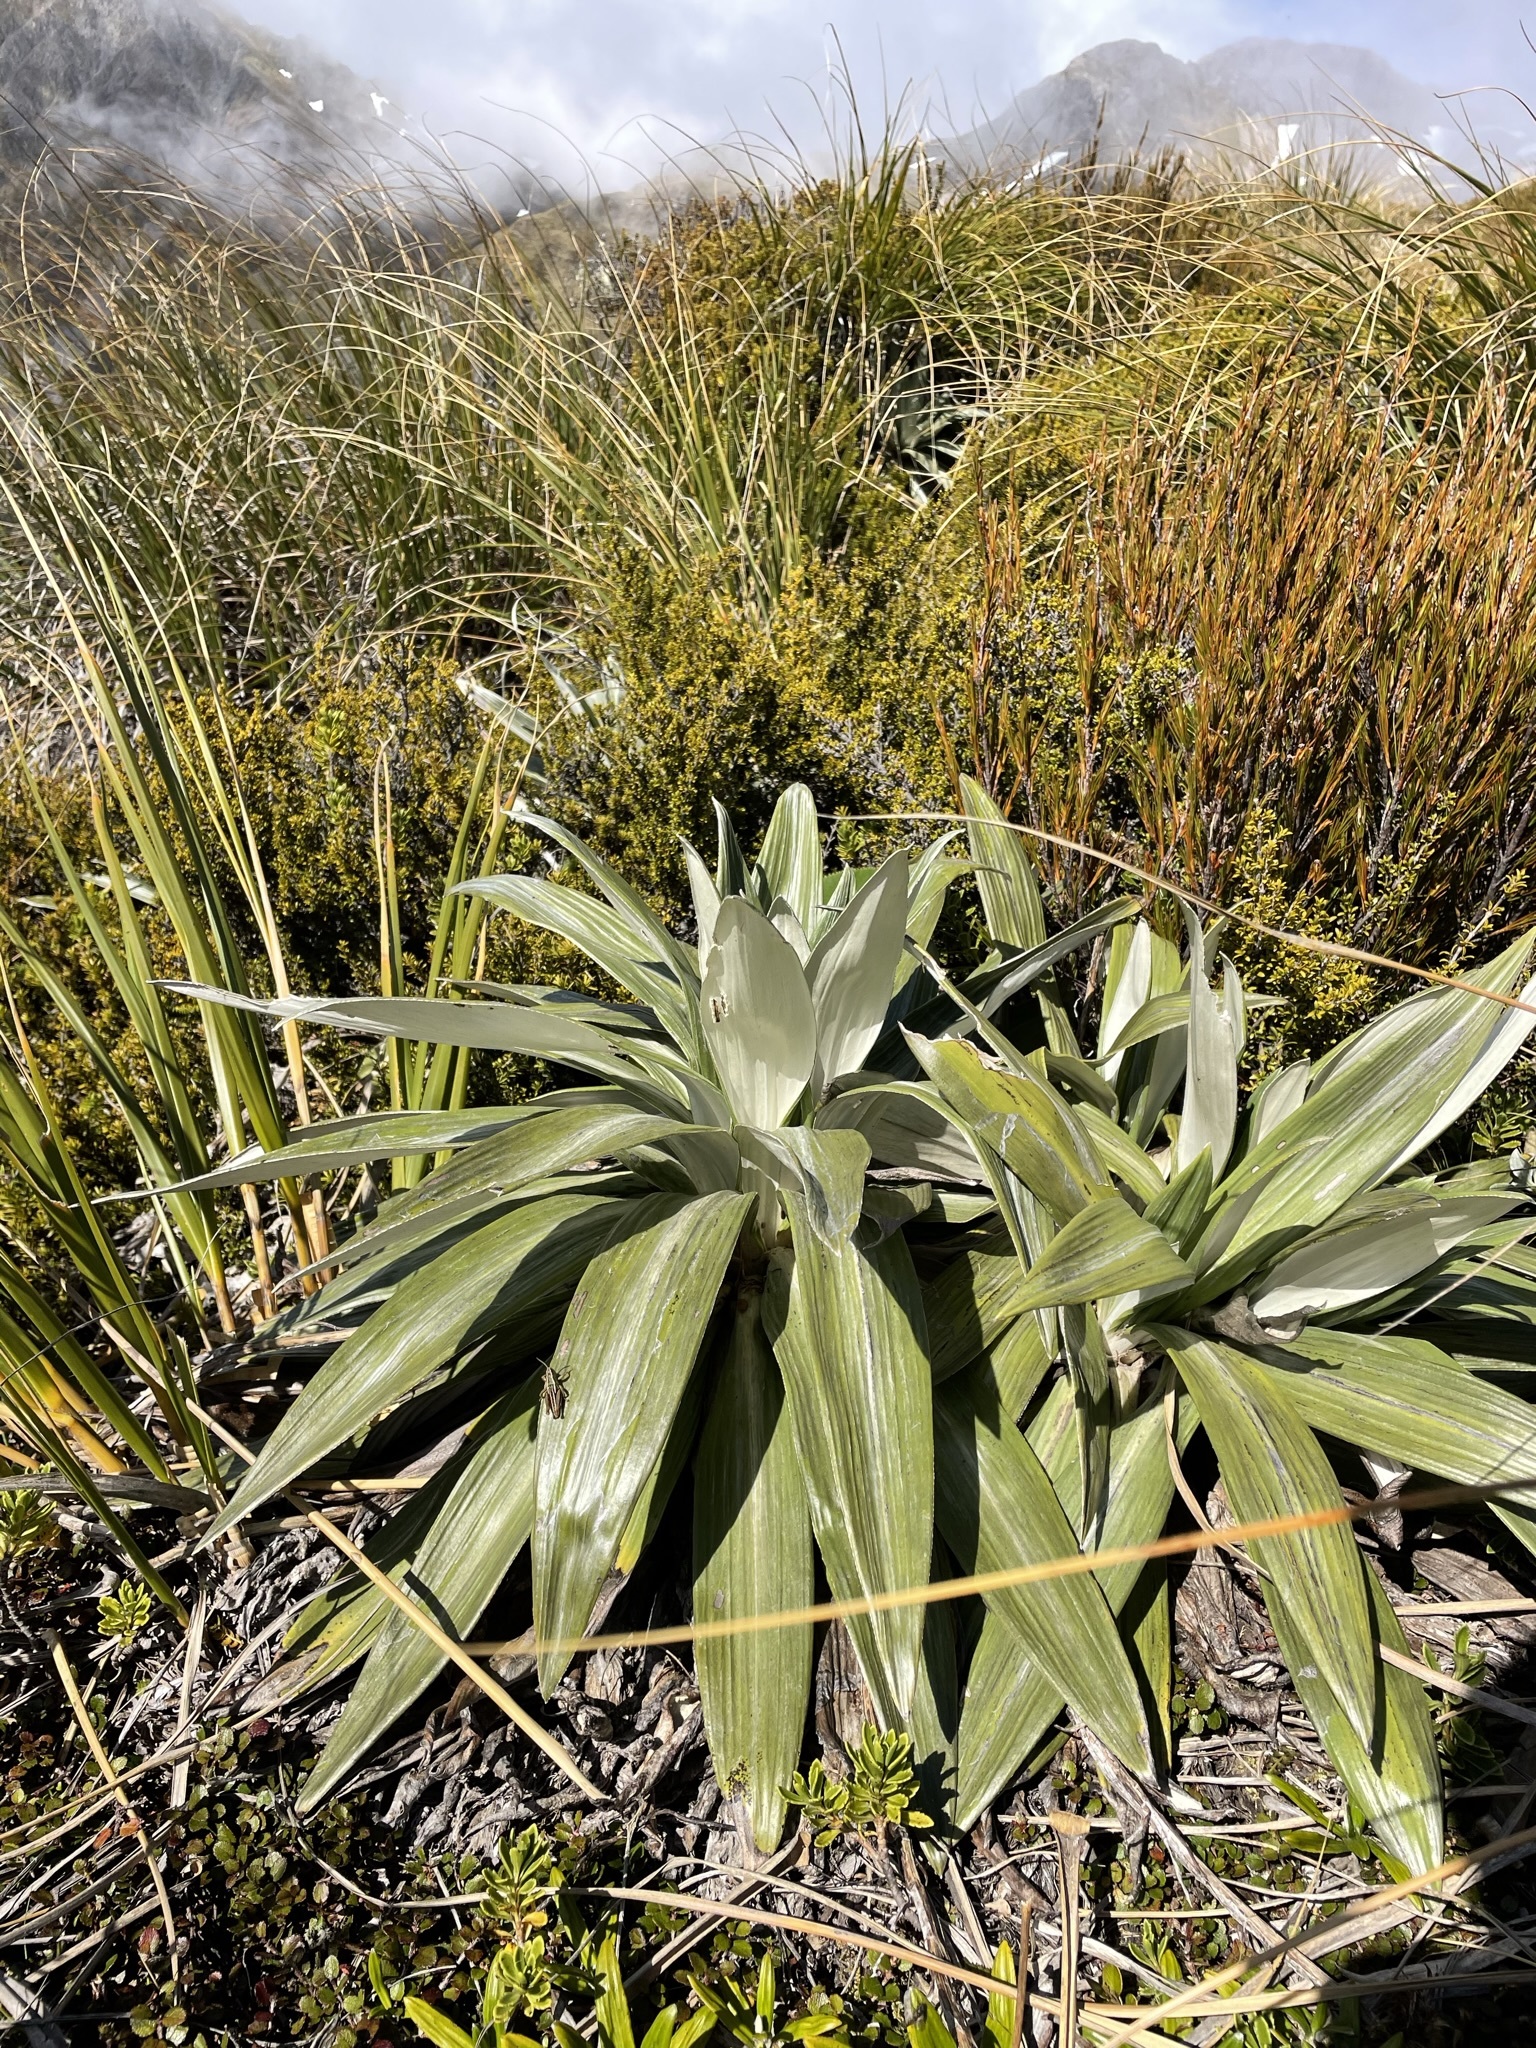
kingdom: Plantae
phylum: Tracheophyta
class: Magnoliopsida
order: Asterales
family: Asteraceae
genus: Celmisia
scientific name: Celmisia semicordata
